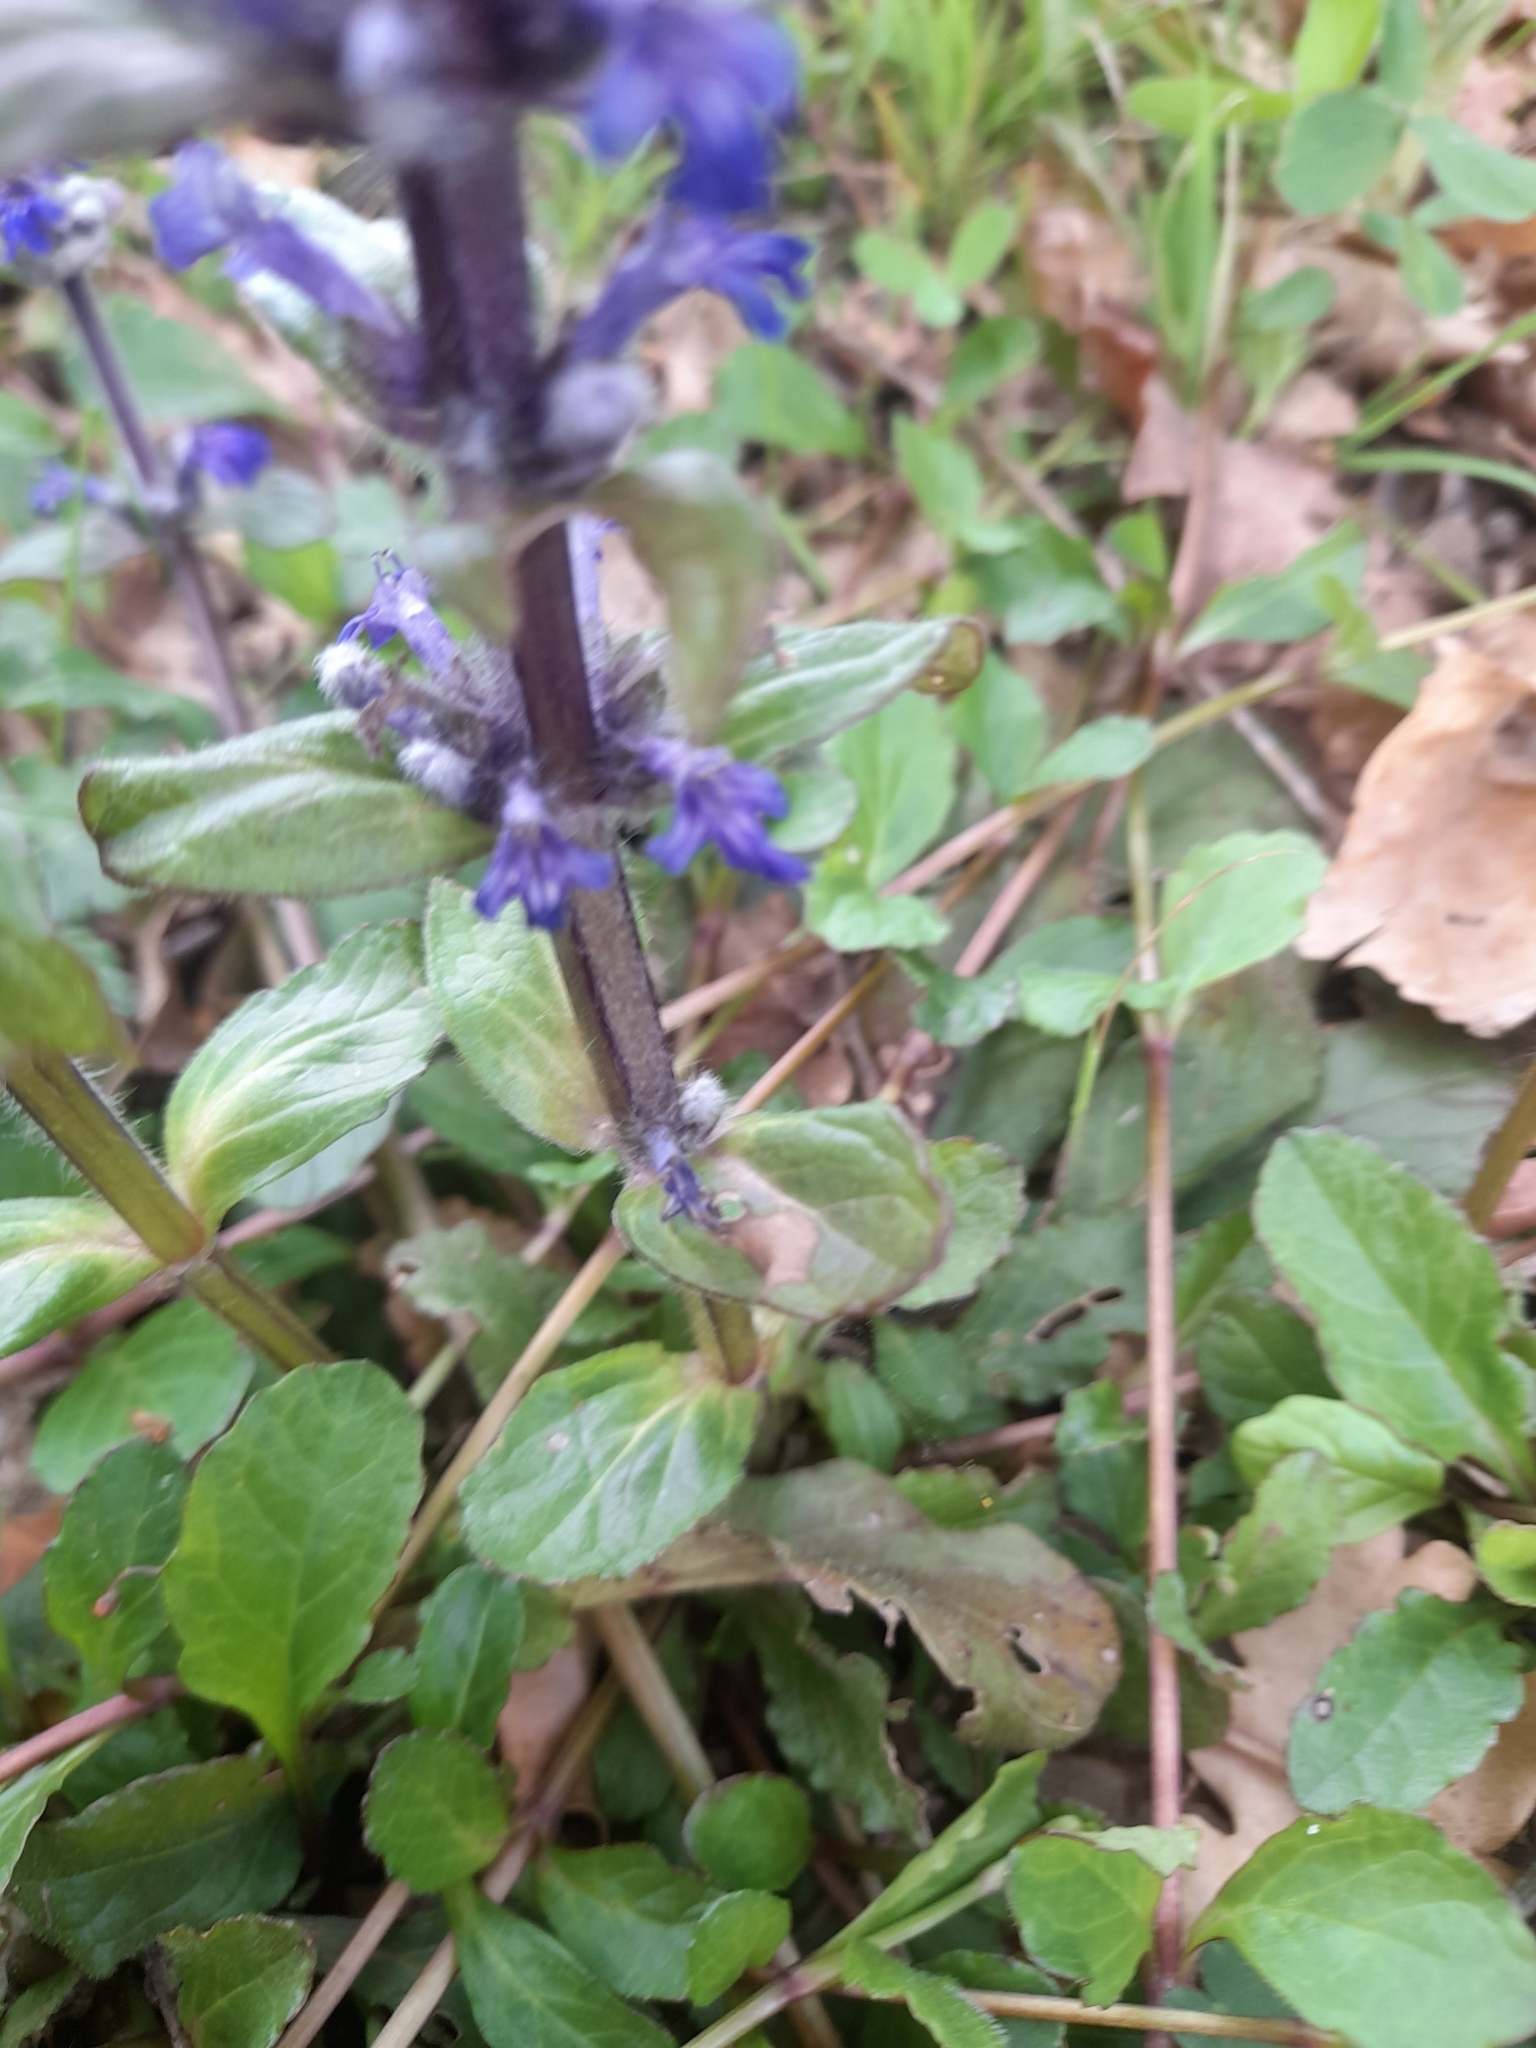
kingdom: Plantae
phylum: Tracheophyta
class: Magnoliopsida
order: Lamiales
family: Lamiaceae
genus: Ajuga
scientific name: Ajuga reptans
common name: Bugle
